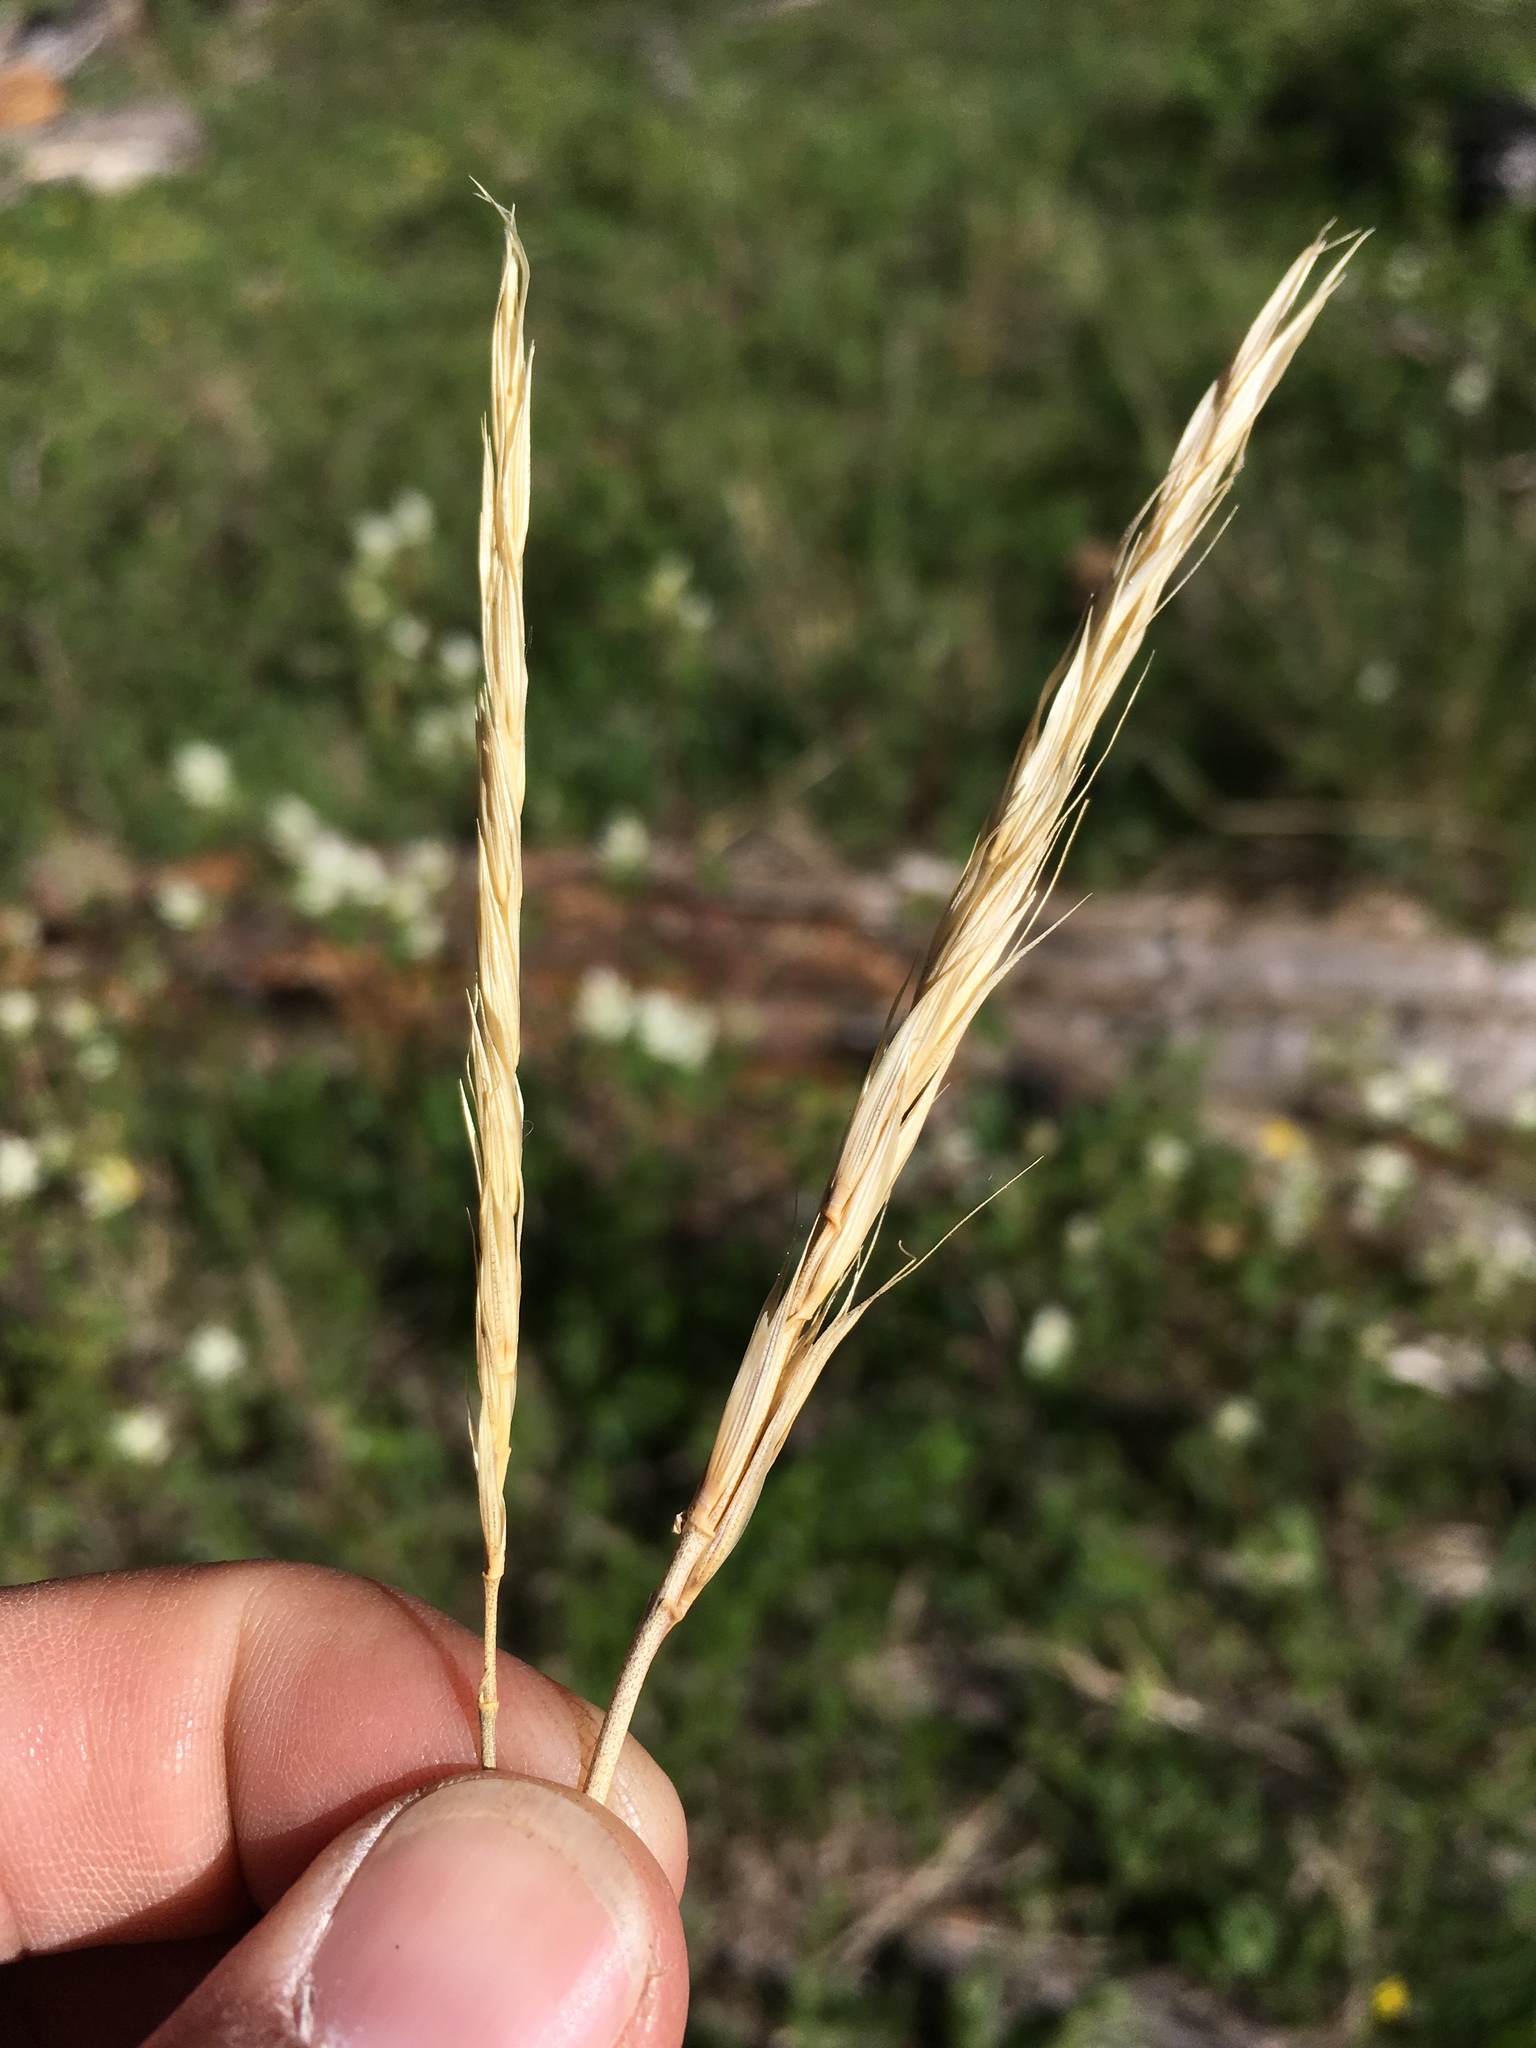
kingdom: Plantae
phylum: Tracheophyta
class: Liliopsida
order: Poales
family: Poaceae
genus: Elymus
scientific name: Elymus violaceus
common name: Arctic wheatgrass
